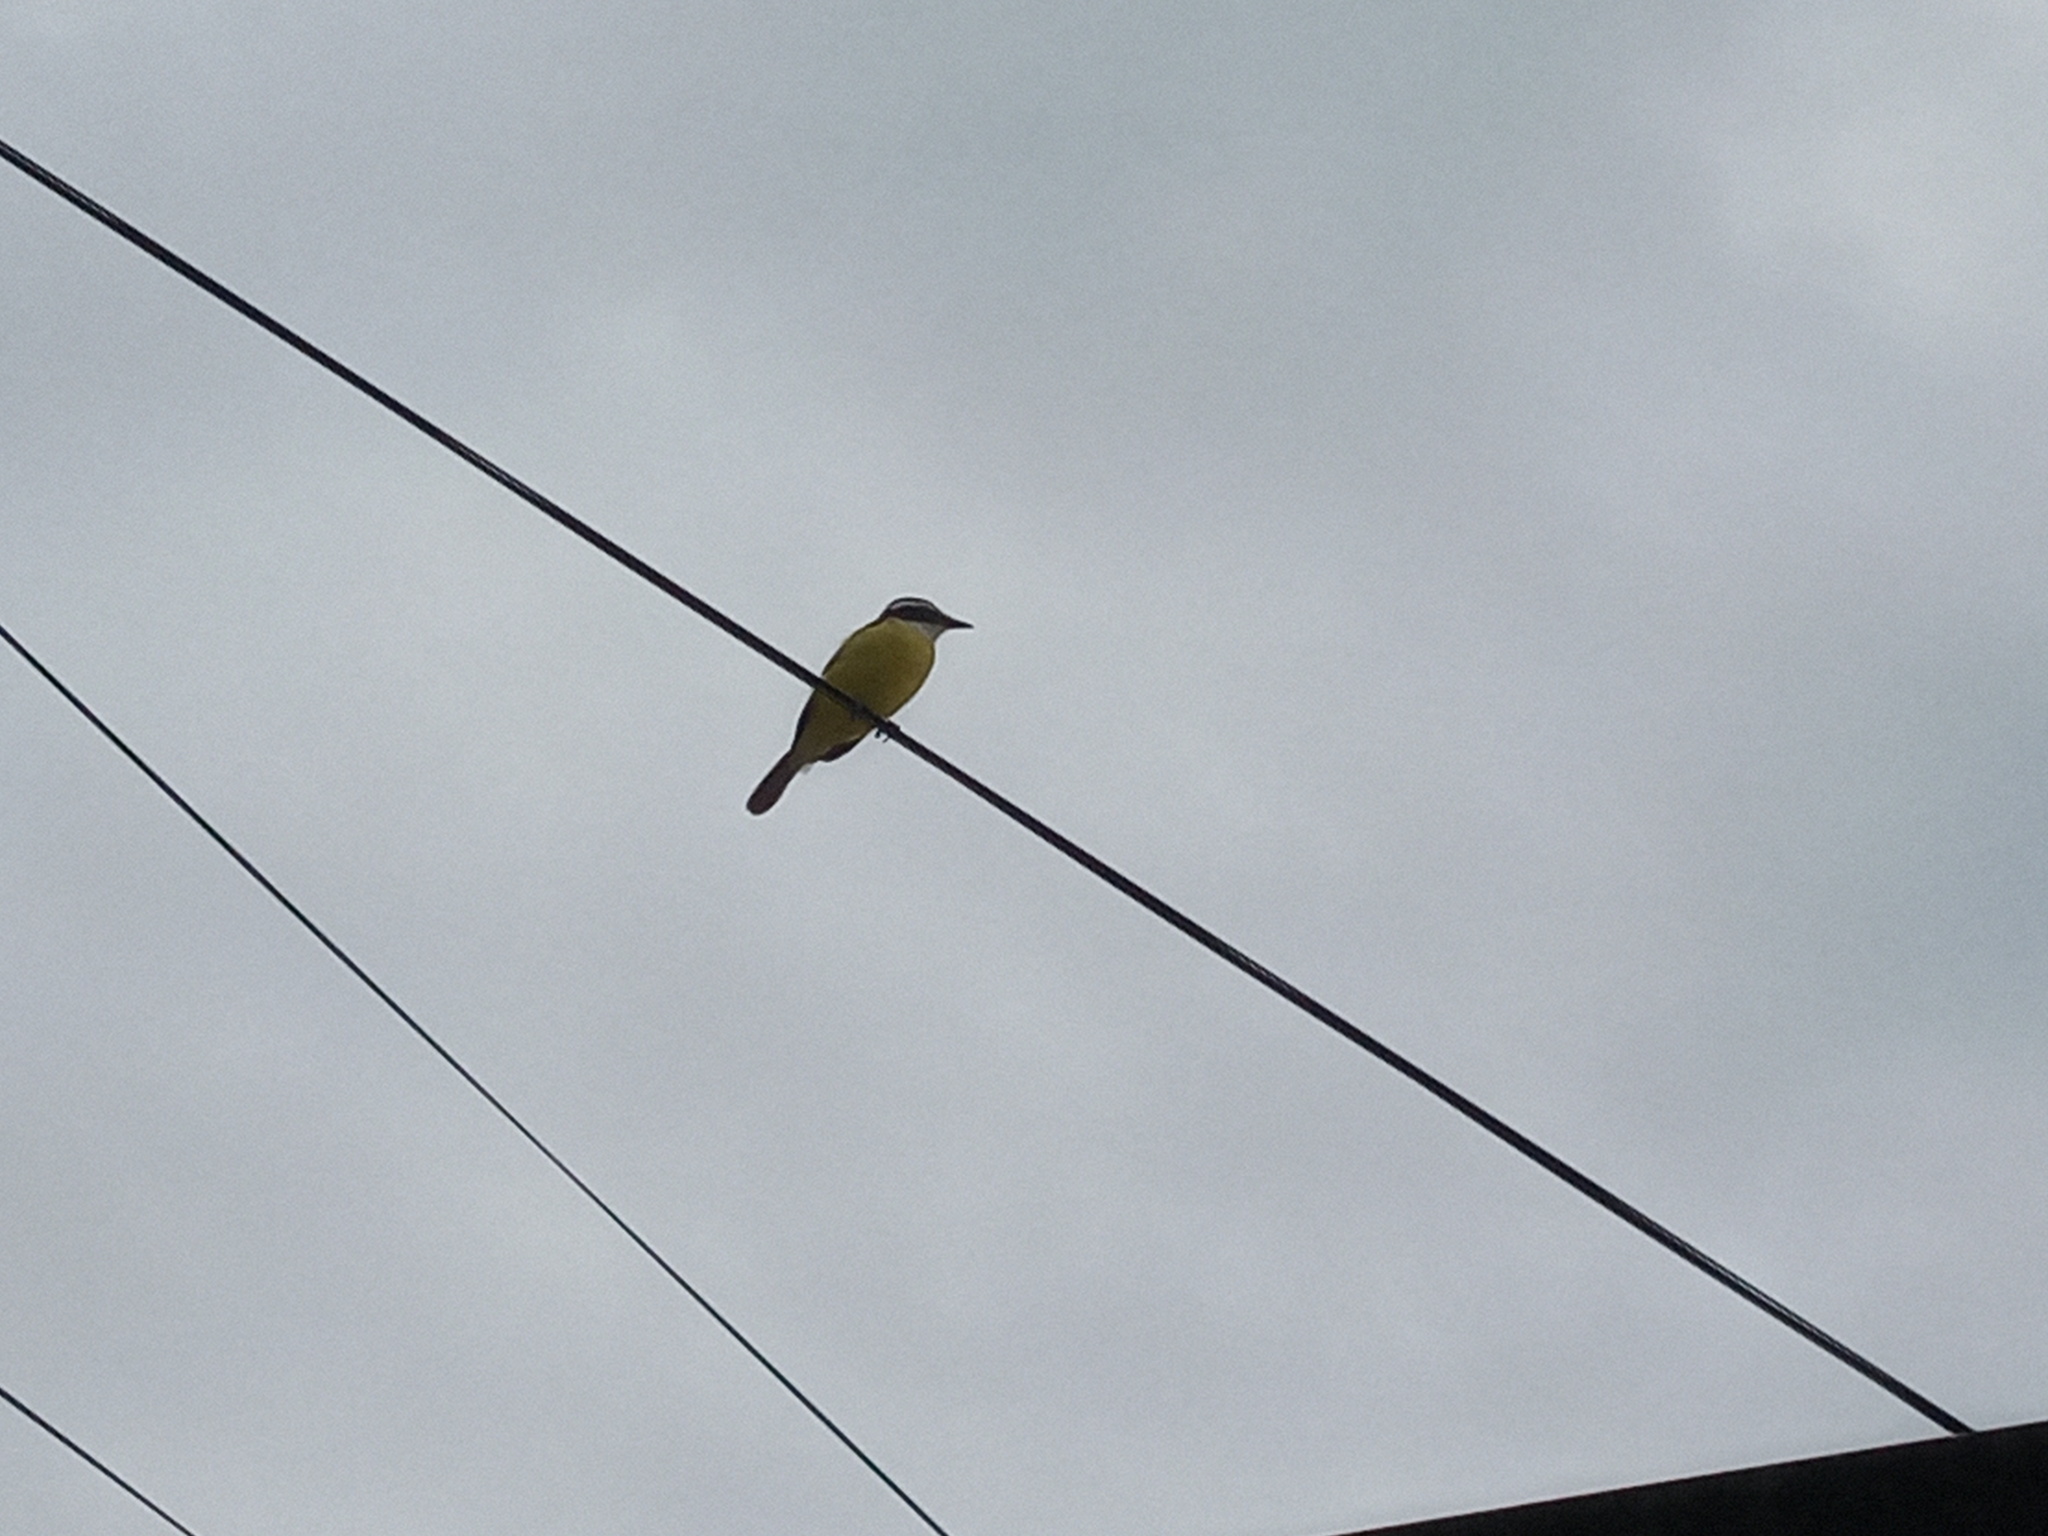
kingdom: Animalia
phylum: Chordata
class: Aves
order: Passeriformes
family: Tyrannidae
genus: Pitangus
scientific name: Pitangus sulphuratus
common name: Great kiskadee
